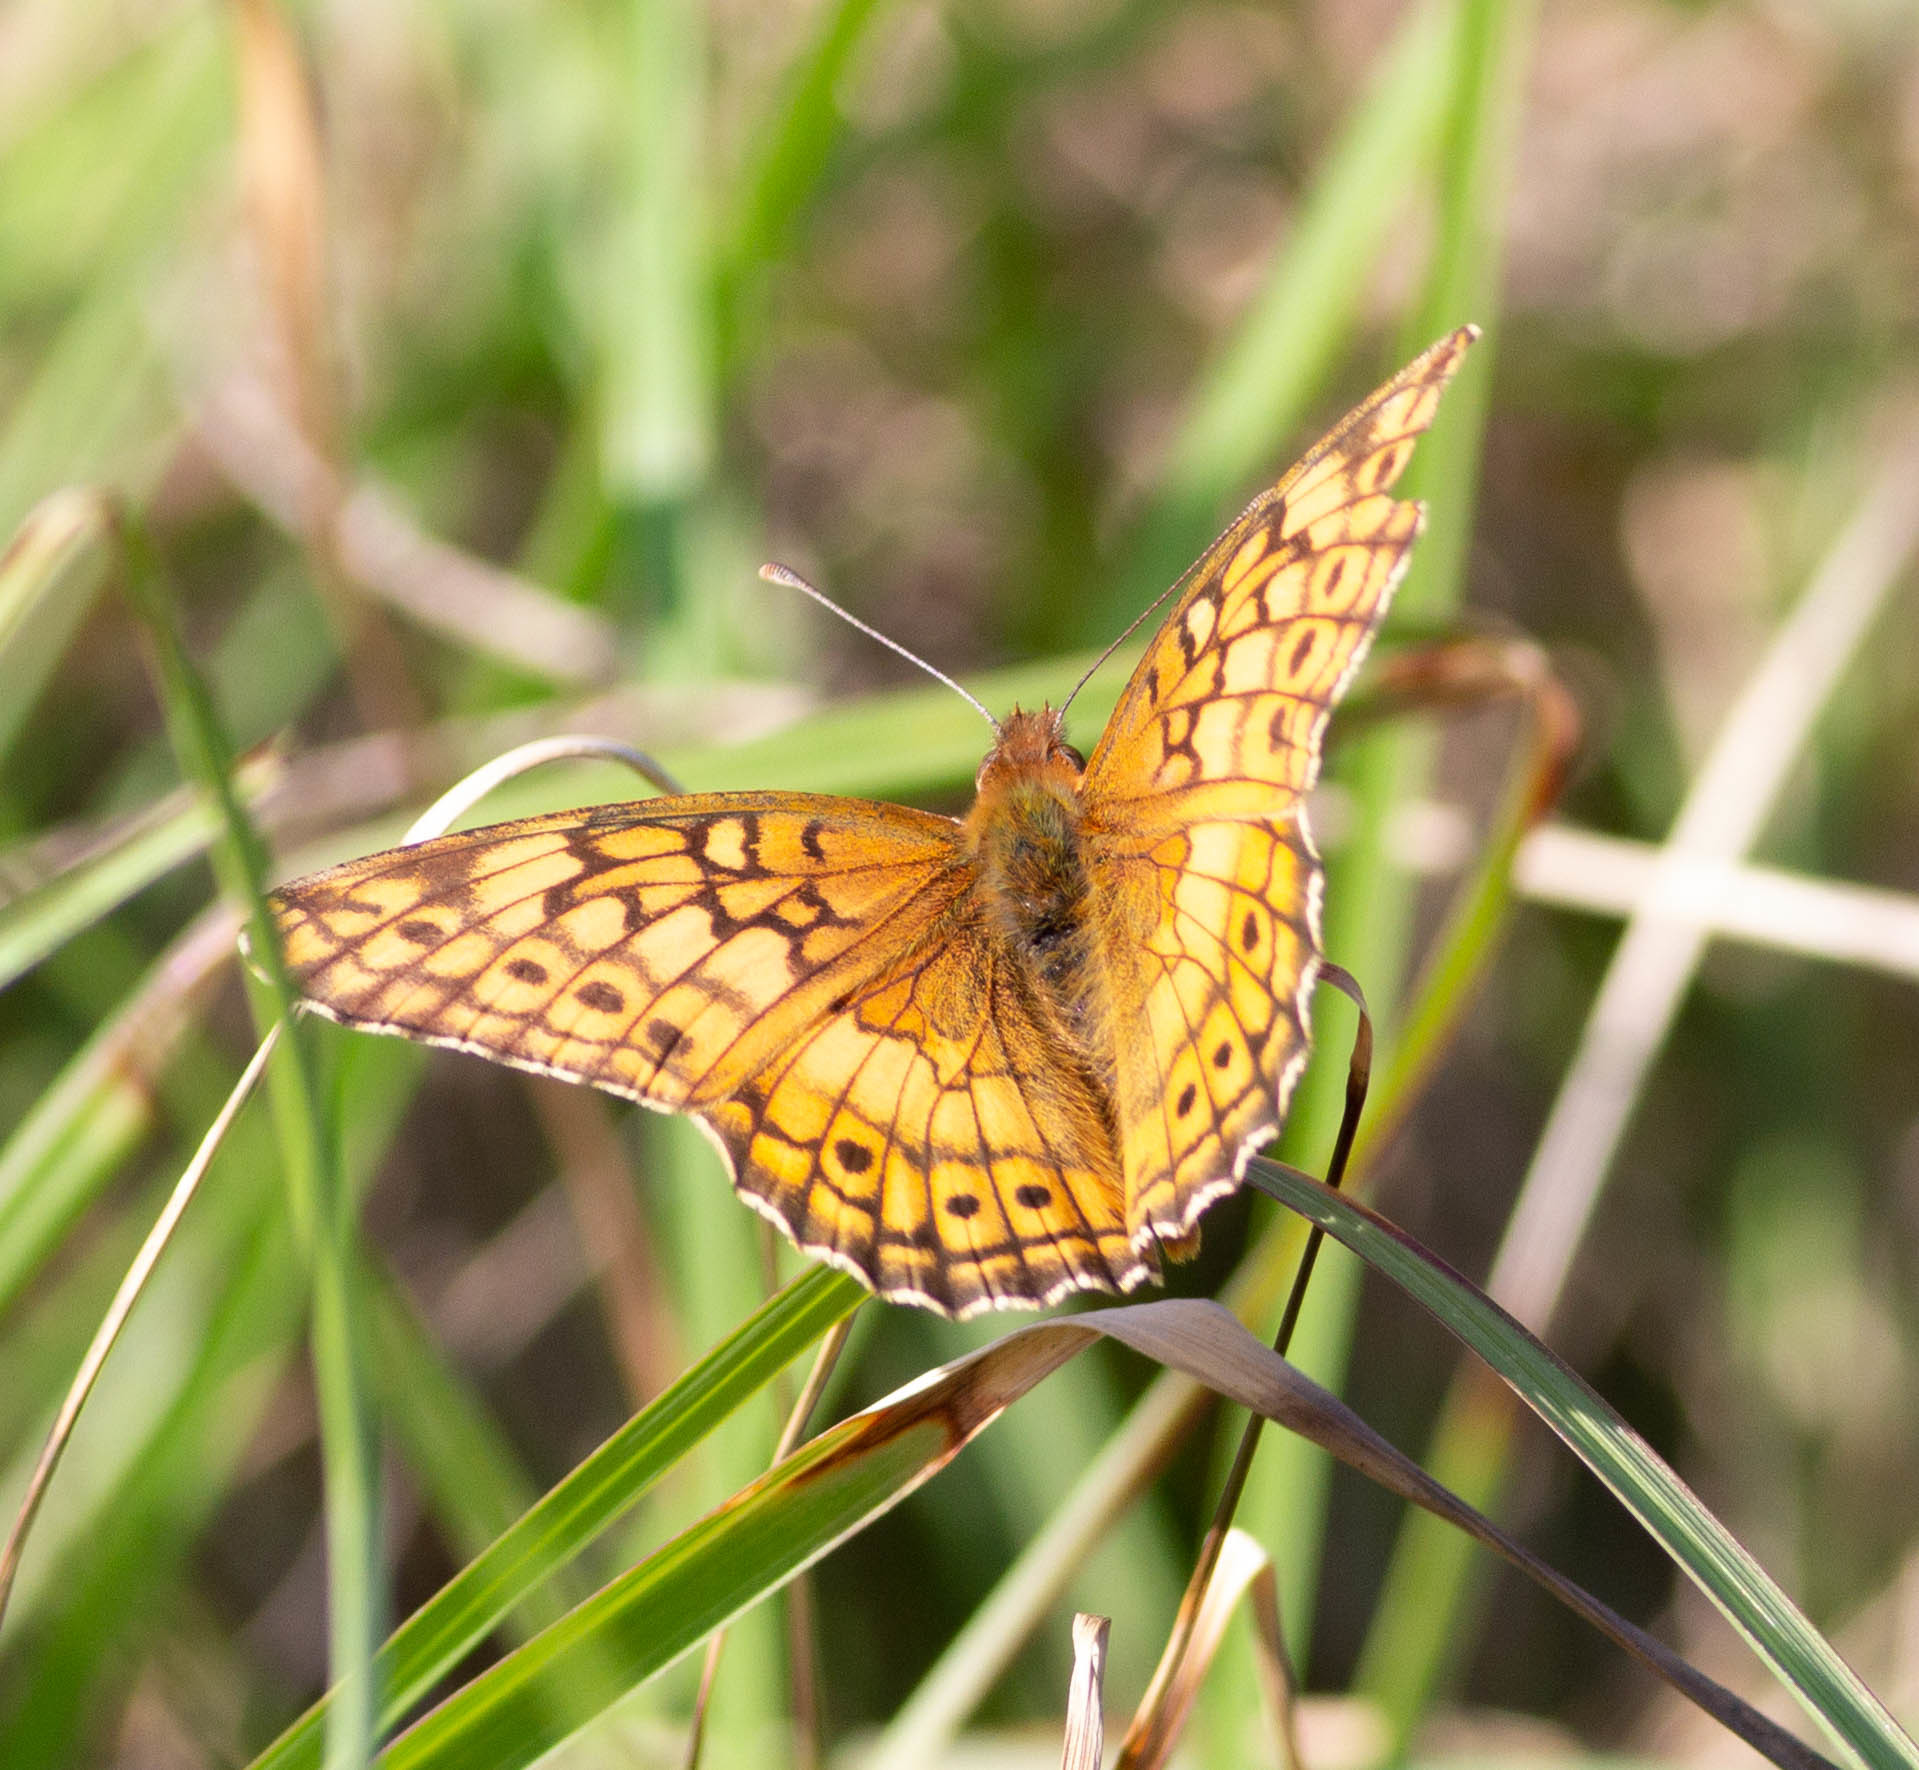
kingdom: Animalia
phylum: Arthropoda
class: Insecta
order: Lepidoptera
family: Nymphalidae
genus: Euptoieta
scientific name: Euptoieta claudia
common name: Variegated fritillary
